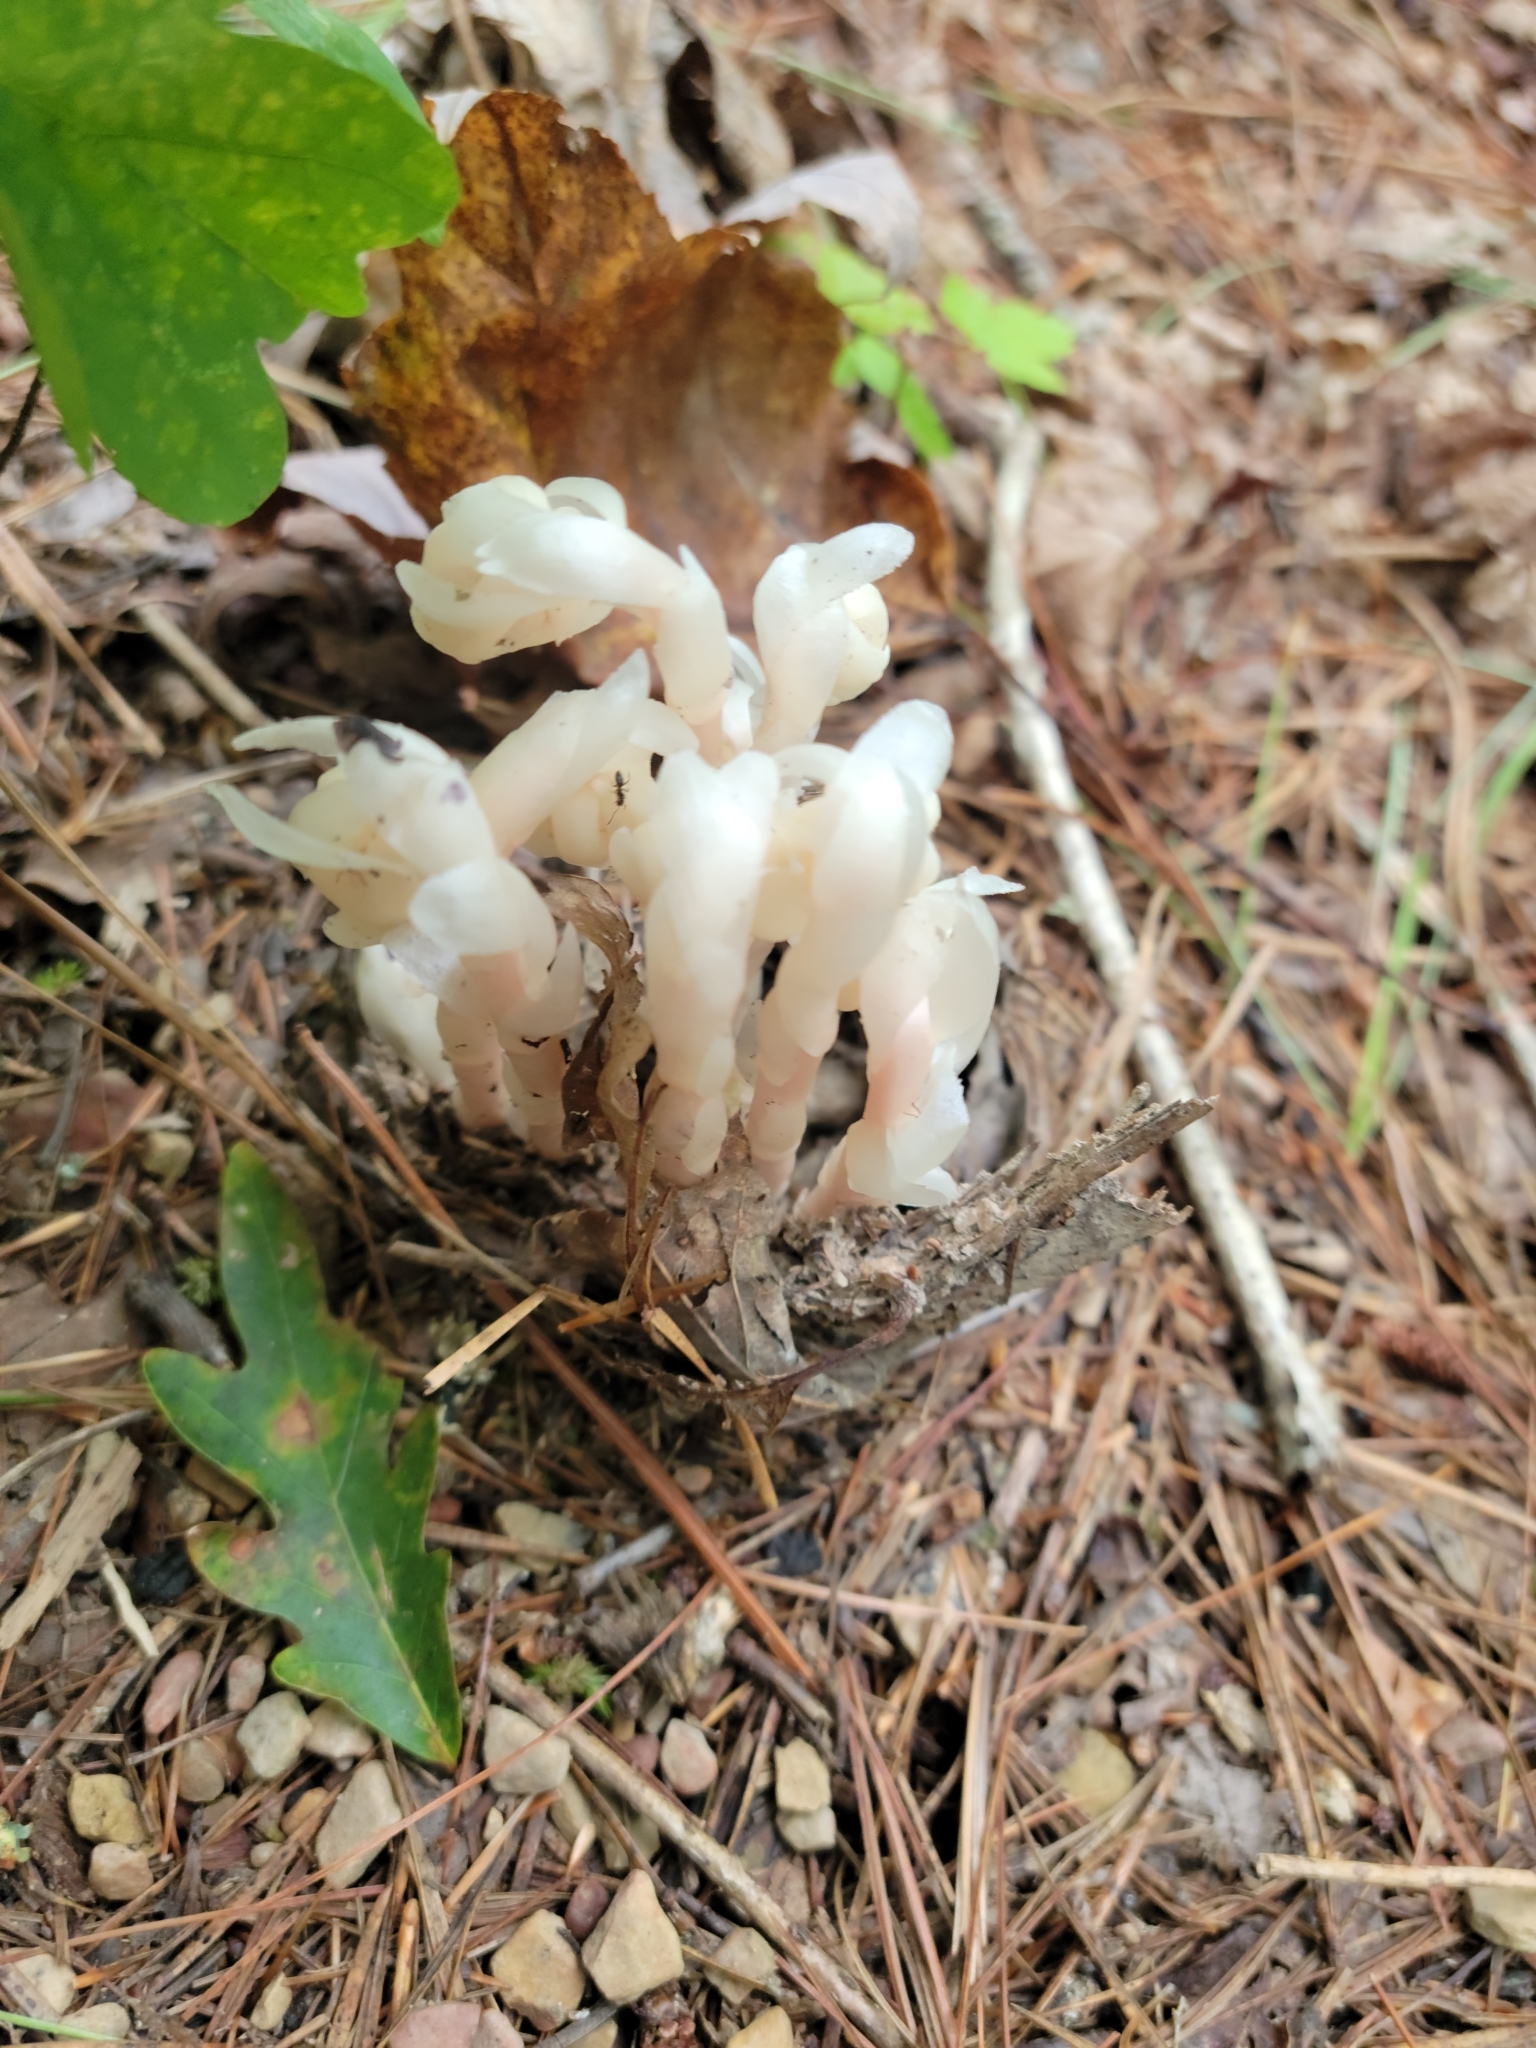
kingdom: Plantae
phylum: Tracheophyta
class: Magnoliopsida
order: Ericales
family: Ericaceae
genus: Monotropa
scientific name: Monotropa uniflora
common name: Convulsion root
